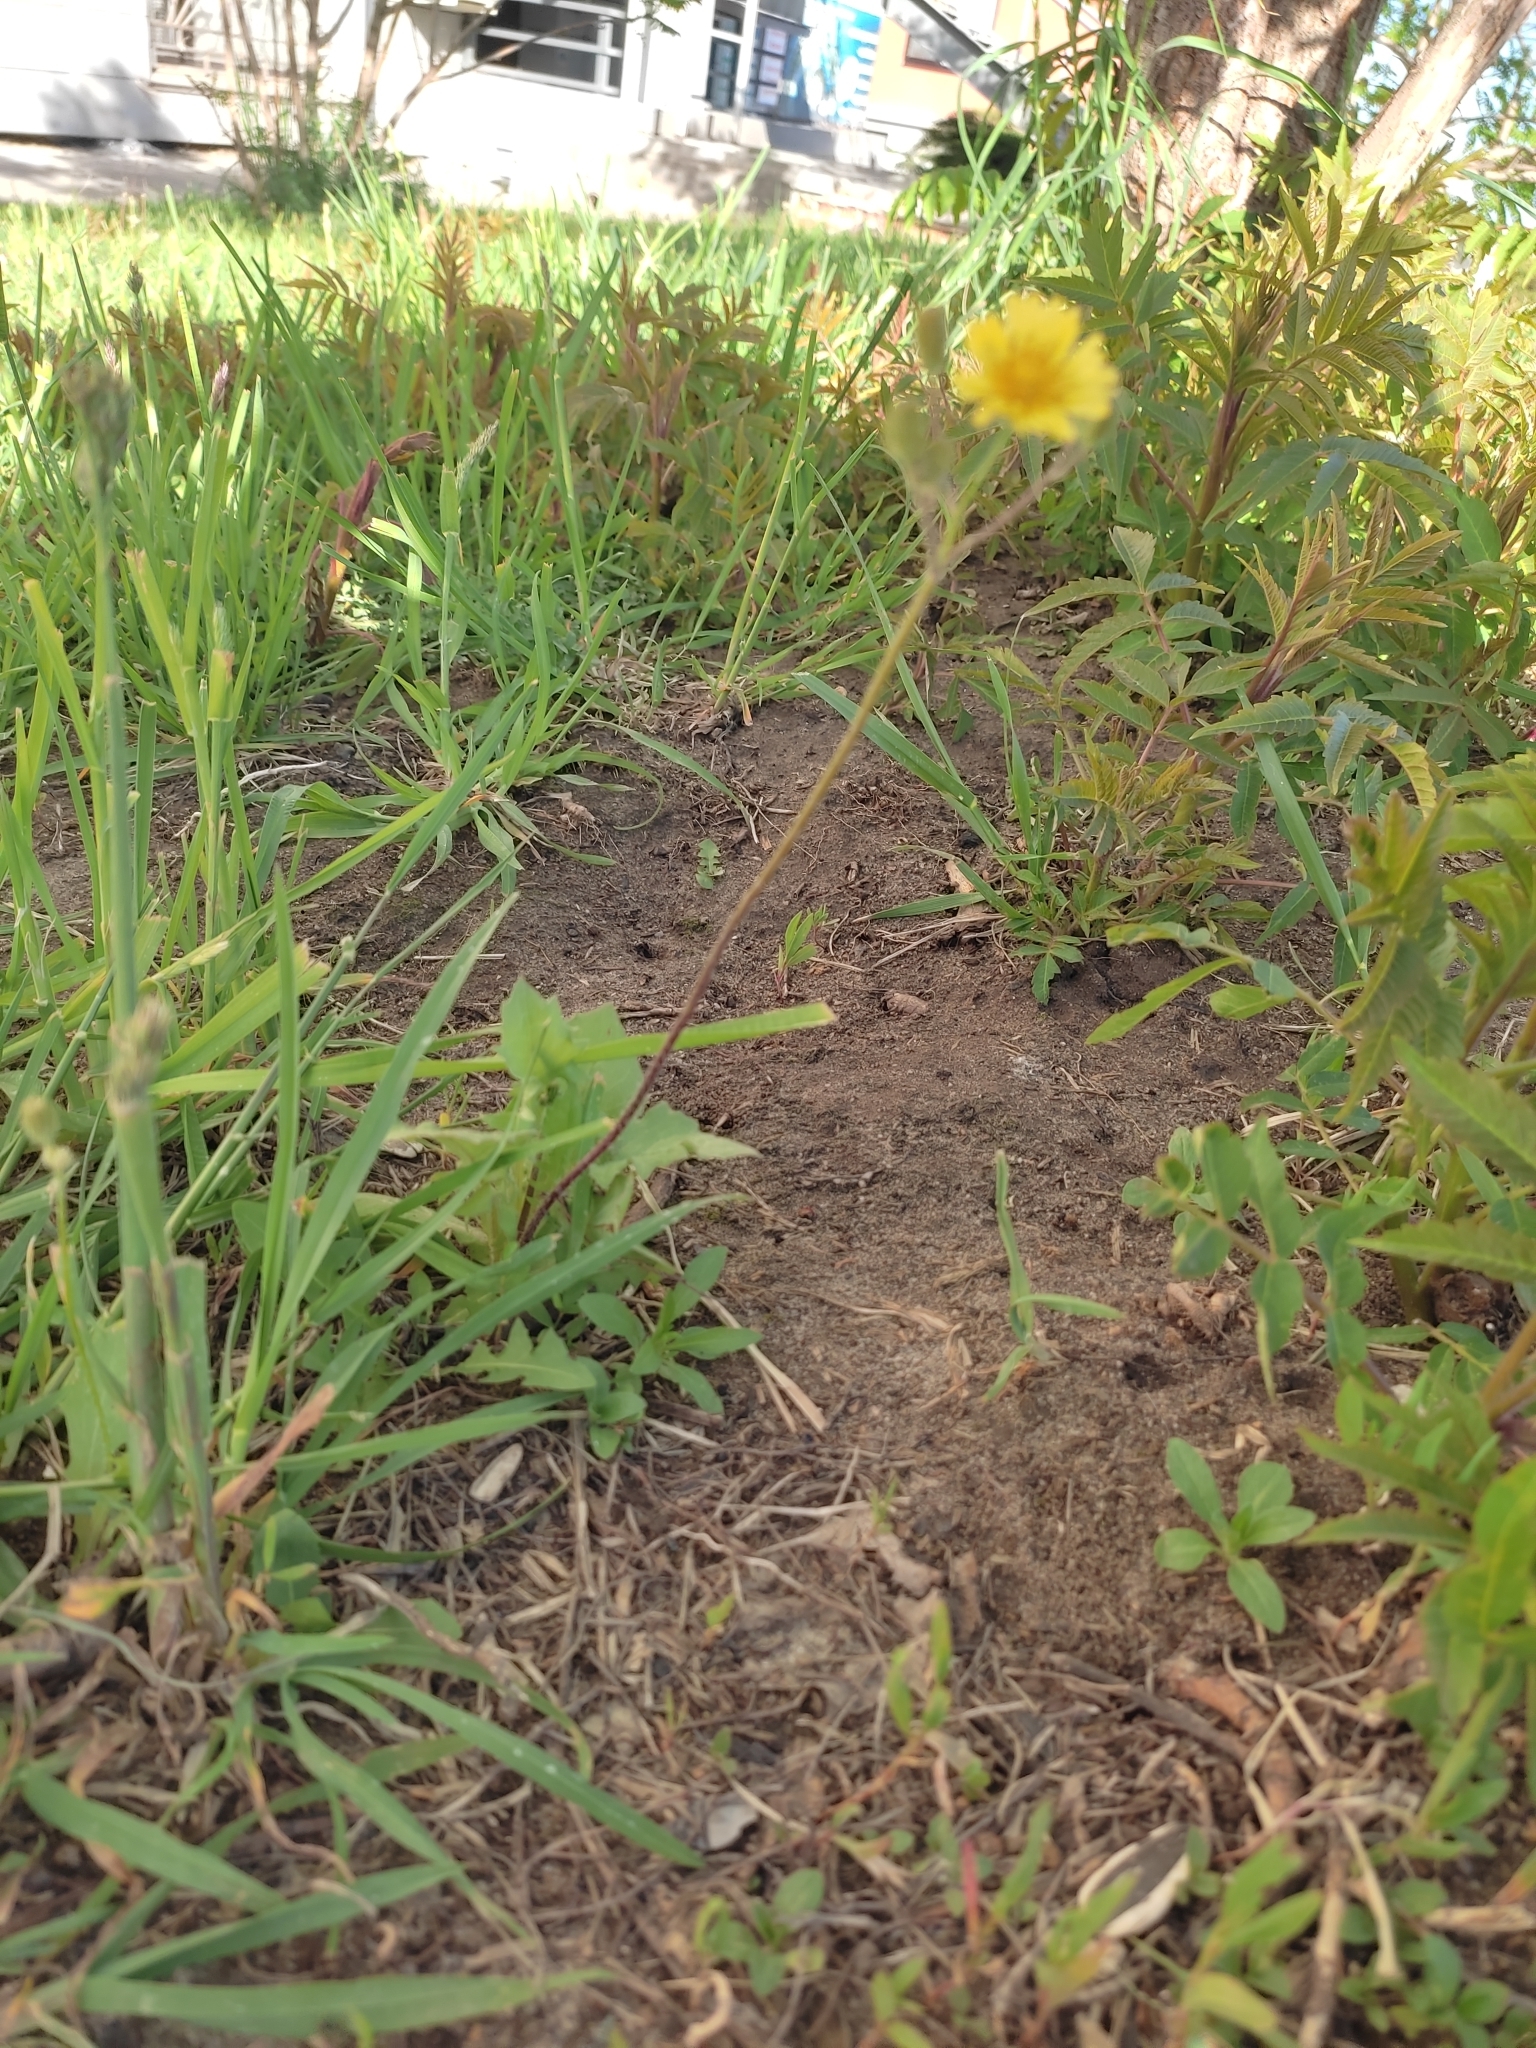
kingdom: Plantae
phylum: Tracheophyta
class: Magnoliopsida
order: Asterales
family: Asteraceae
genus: Crepis
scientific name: Crepis sancta
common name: Hawk's-beard
